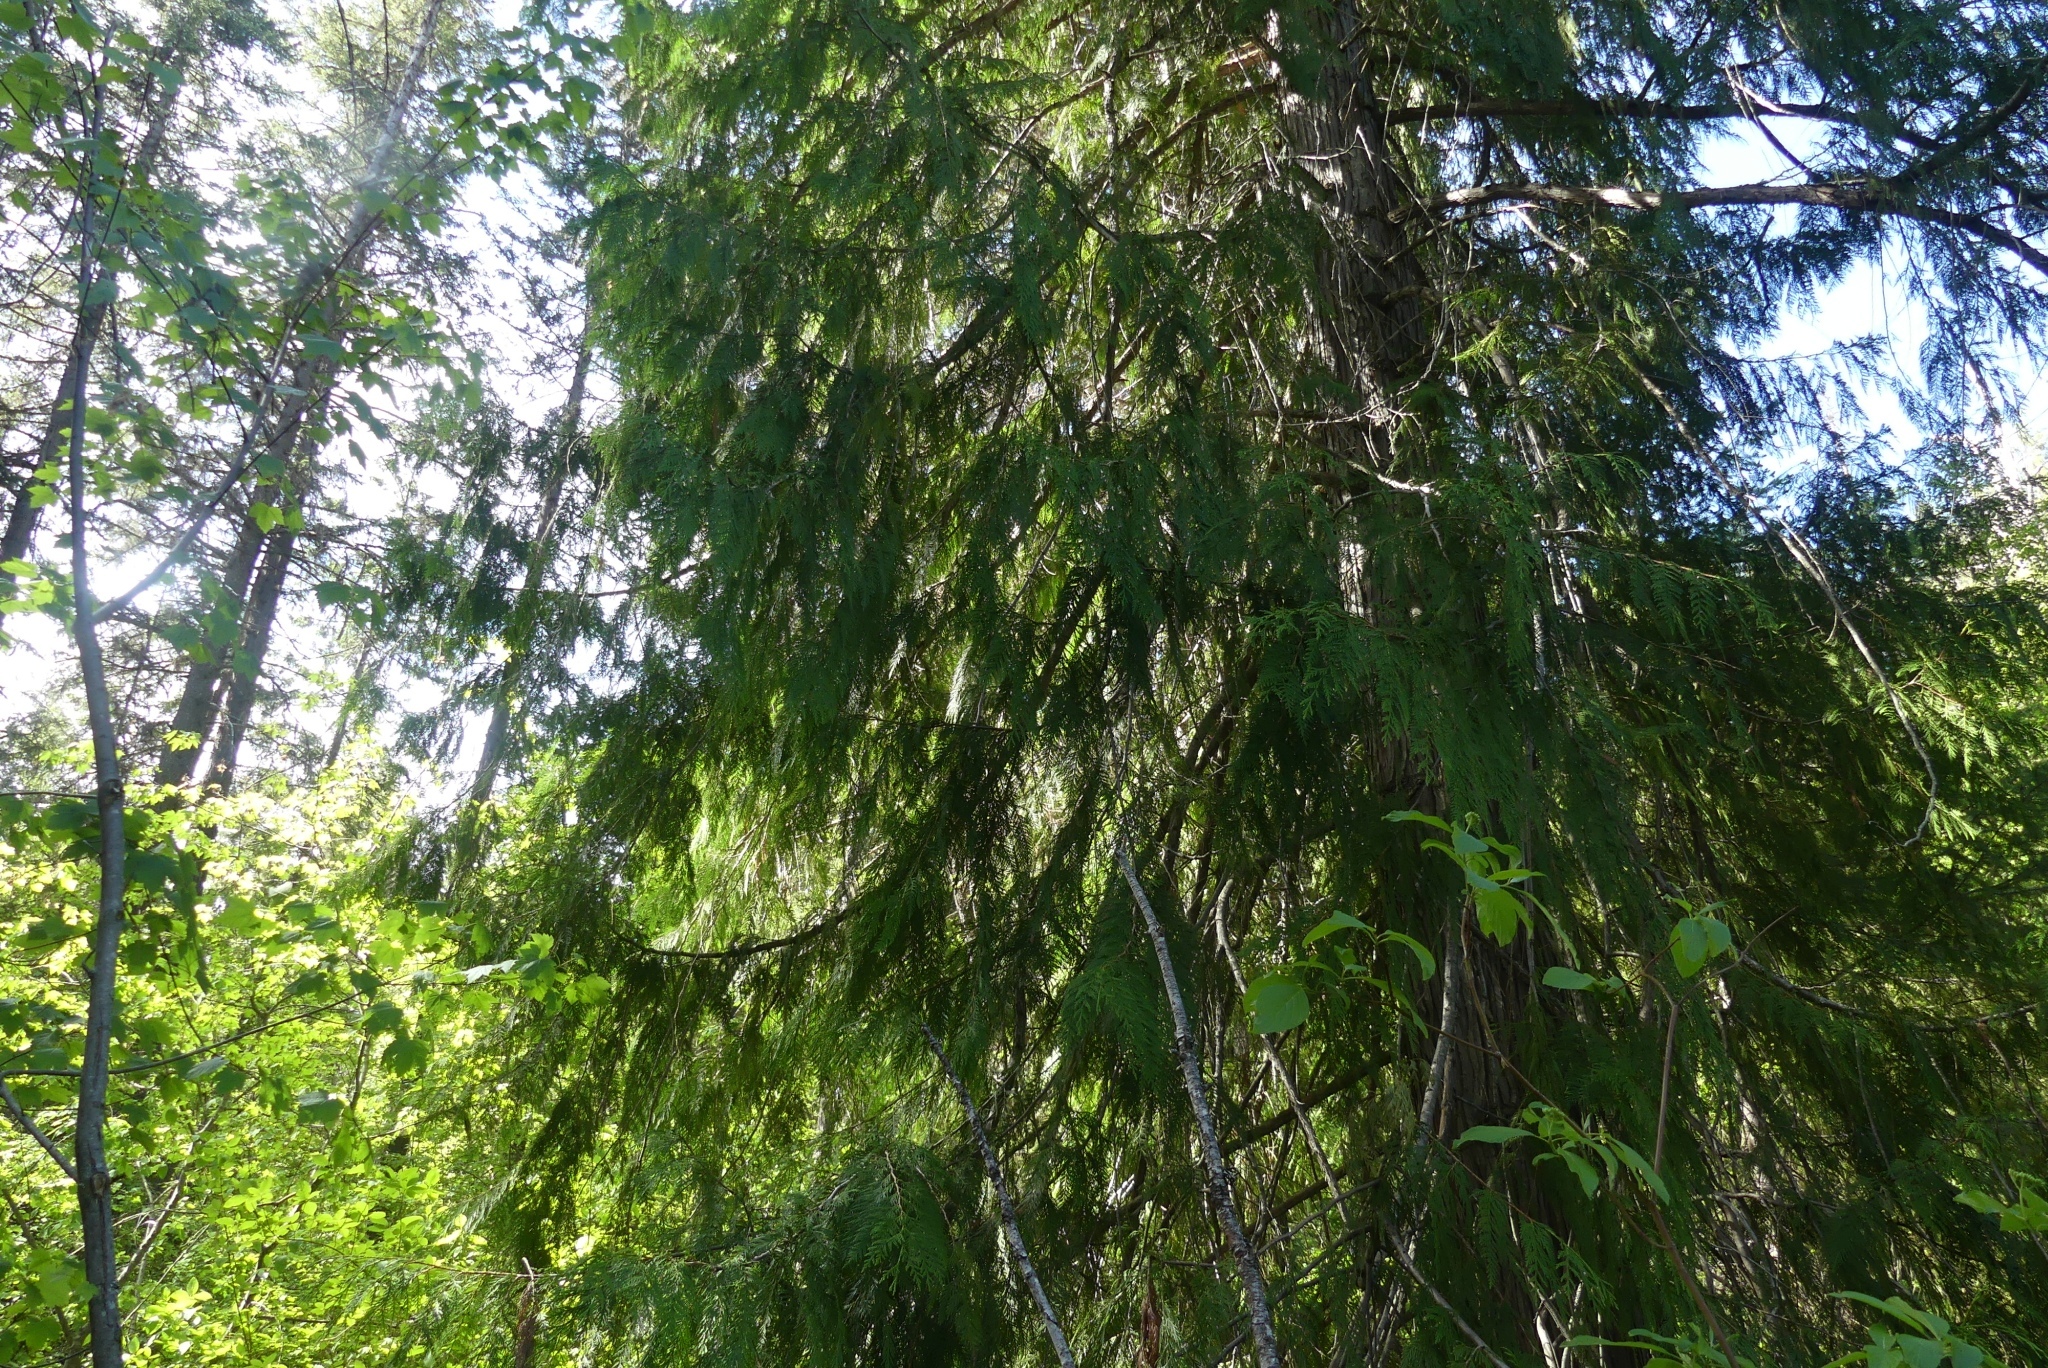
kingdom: Plantae
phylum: Tracheophyta
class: Pinopsida
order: Pinales
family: Cupressaceae
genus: Thuja
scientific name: Thuja plicata
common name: Western red-cedar
